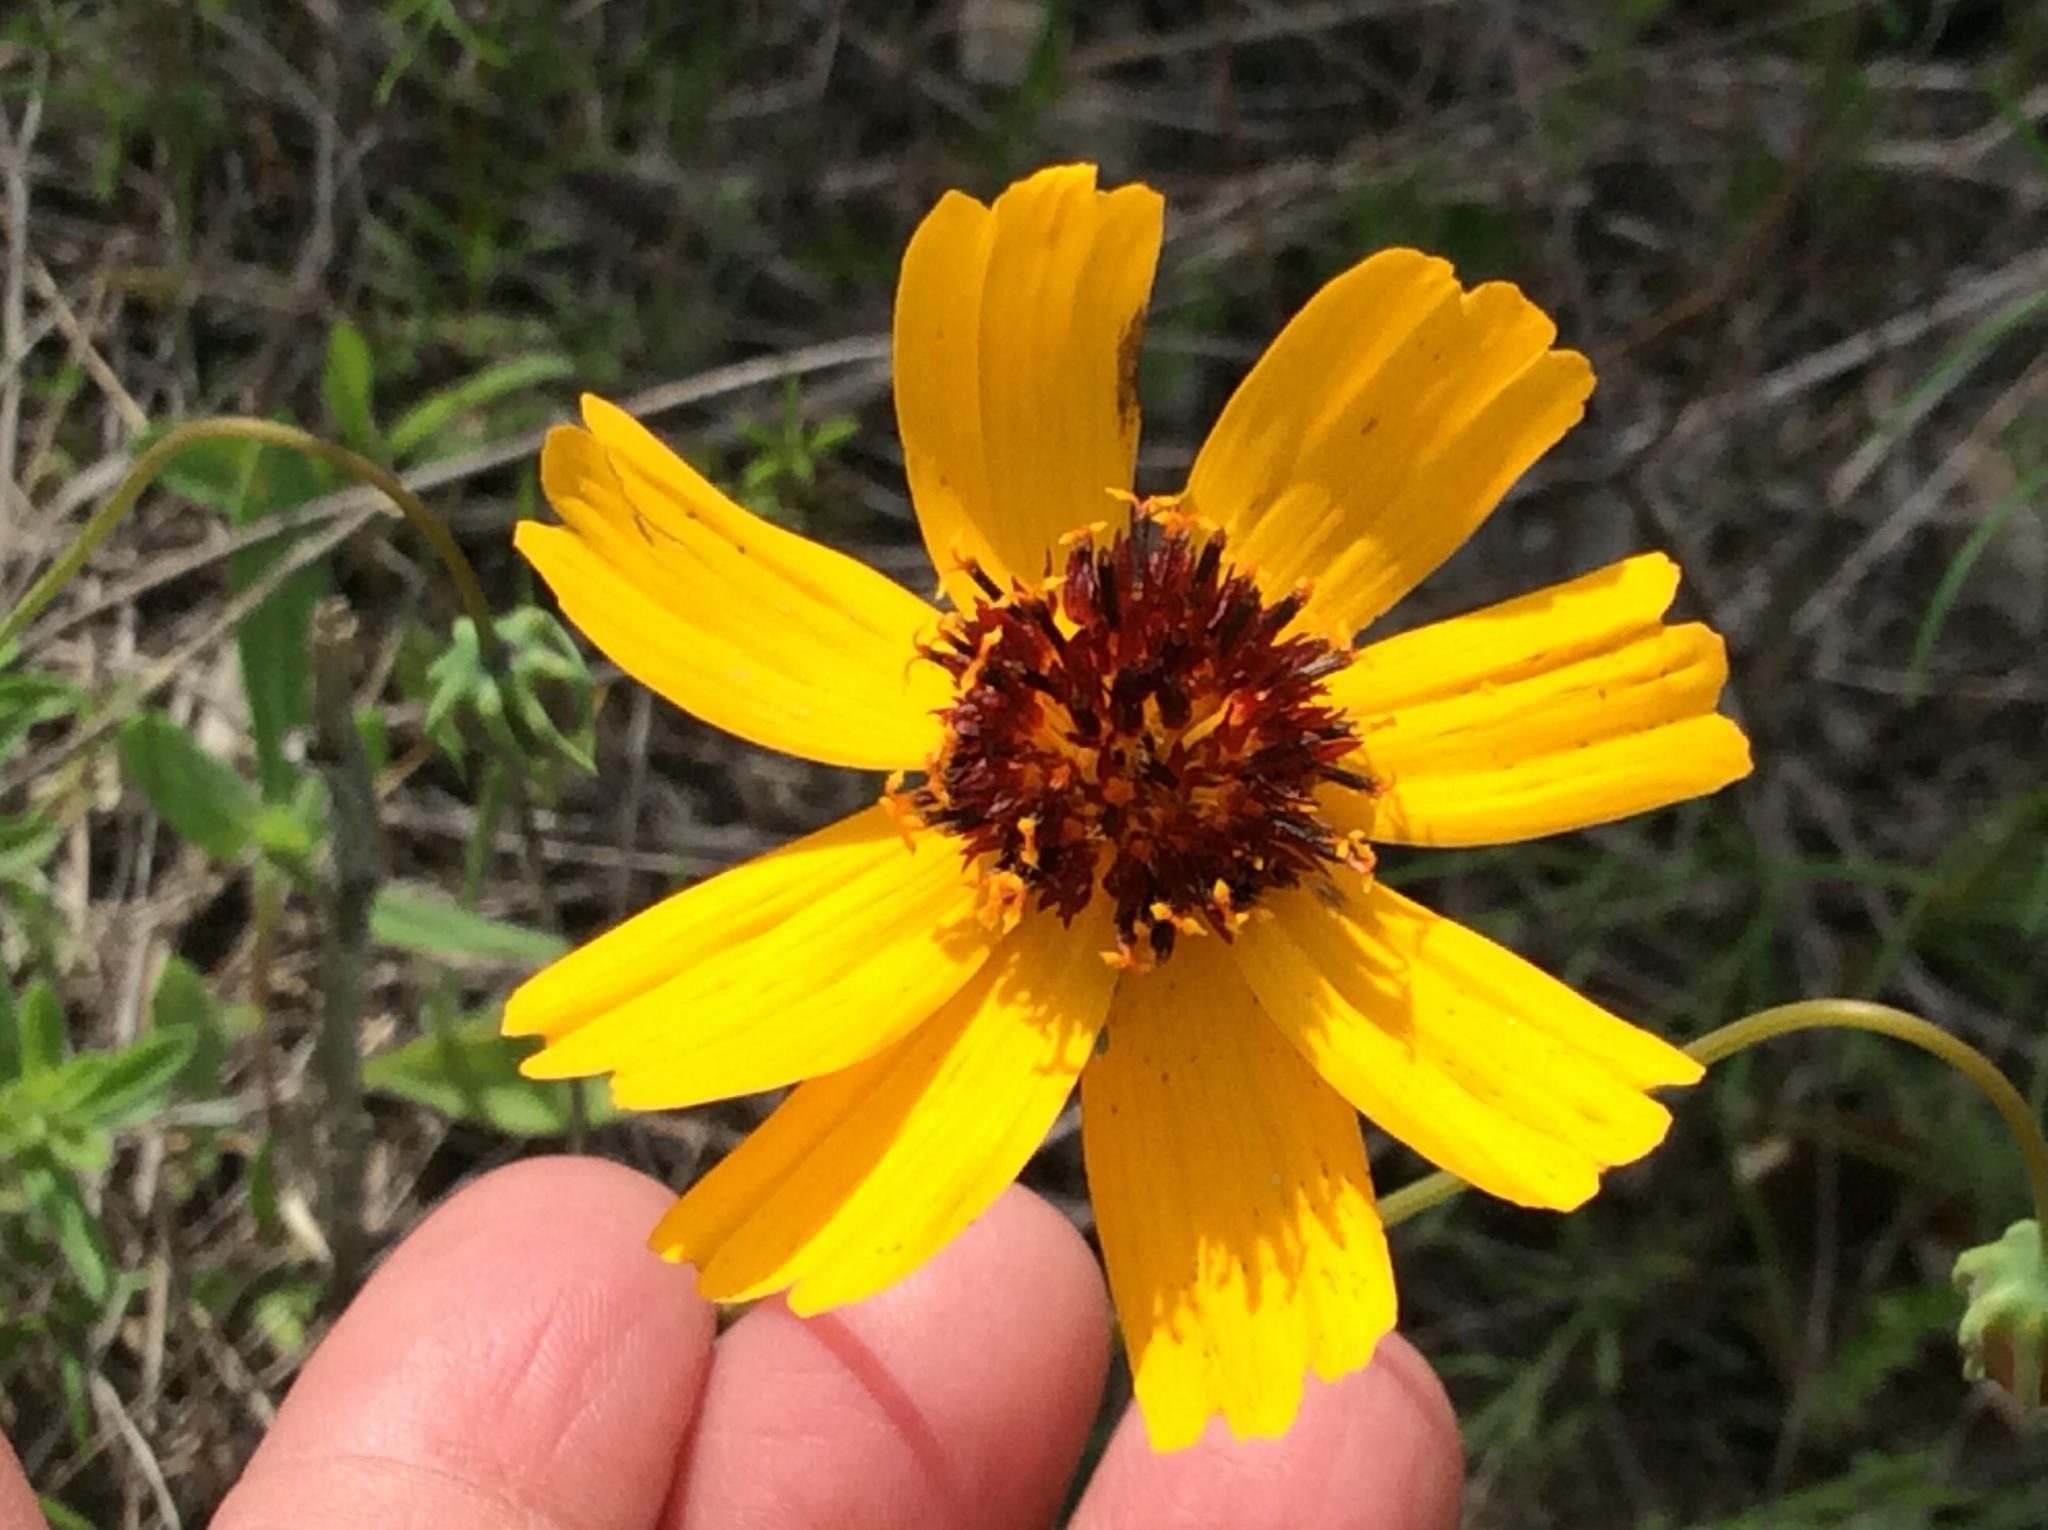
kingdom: Plantae
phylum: Tracheophyta
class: Magnoliopsida
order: Asterales
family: Asteraceae
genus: Thelesperma
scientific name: Thelesperma filifolium
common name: Stiff greenthread
